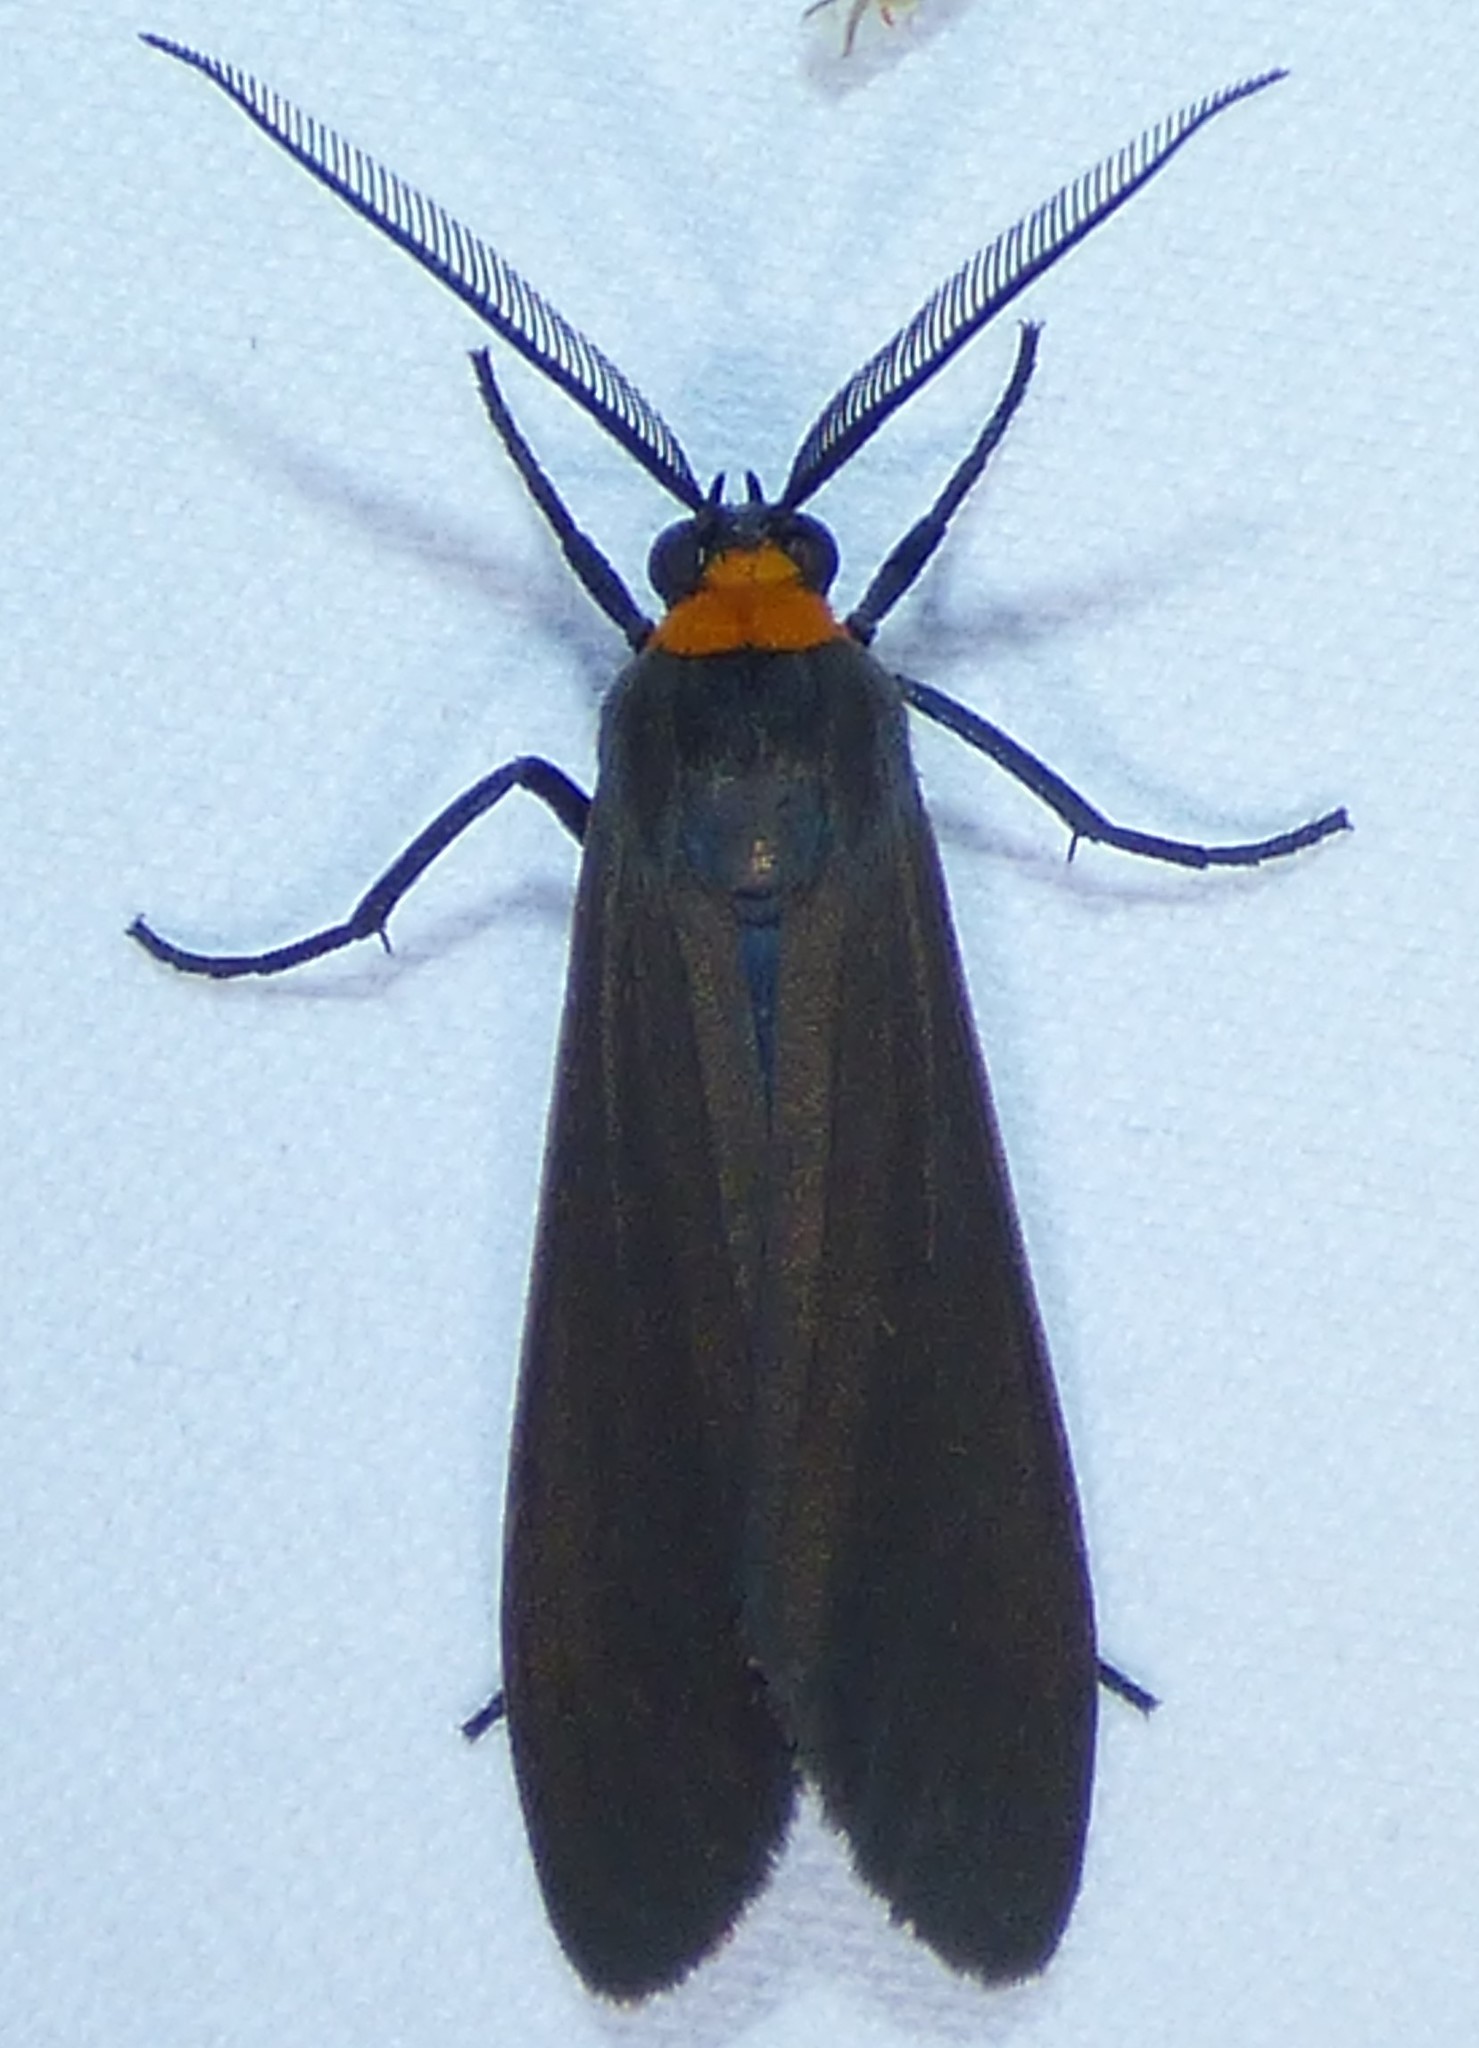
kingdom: Animalia
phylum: Arthropoda
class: Insecta
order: Lepidoptera
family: Erebidae
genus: Cisseps
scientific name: Cisseps fulvicollis
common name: Yellow-collared scape moth
